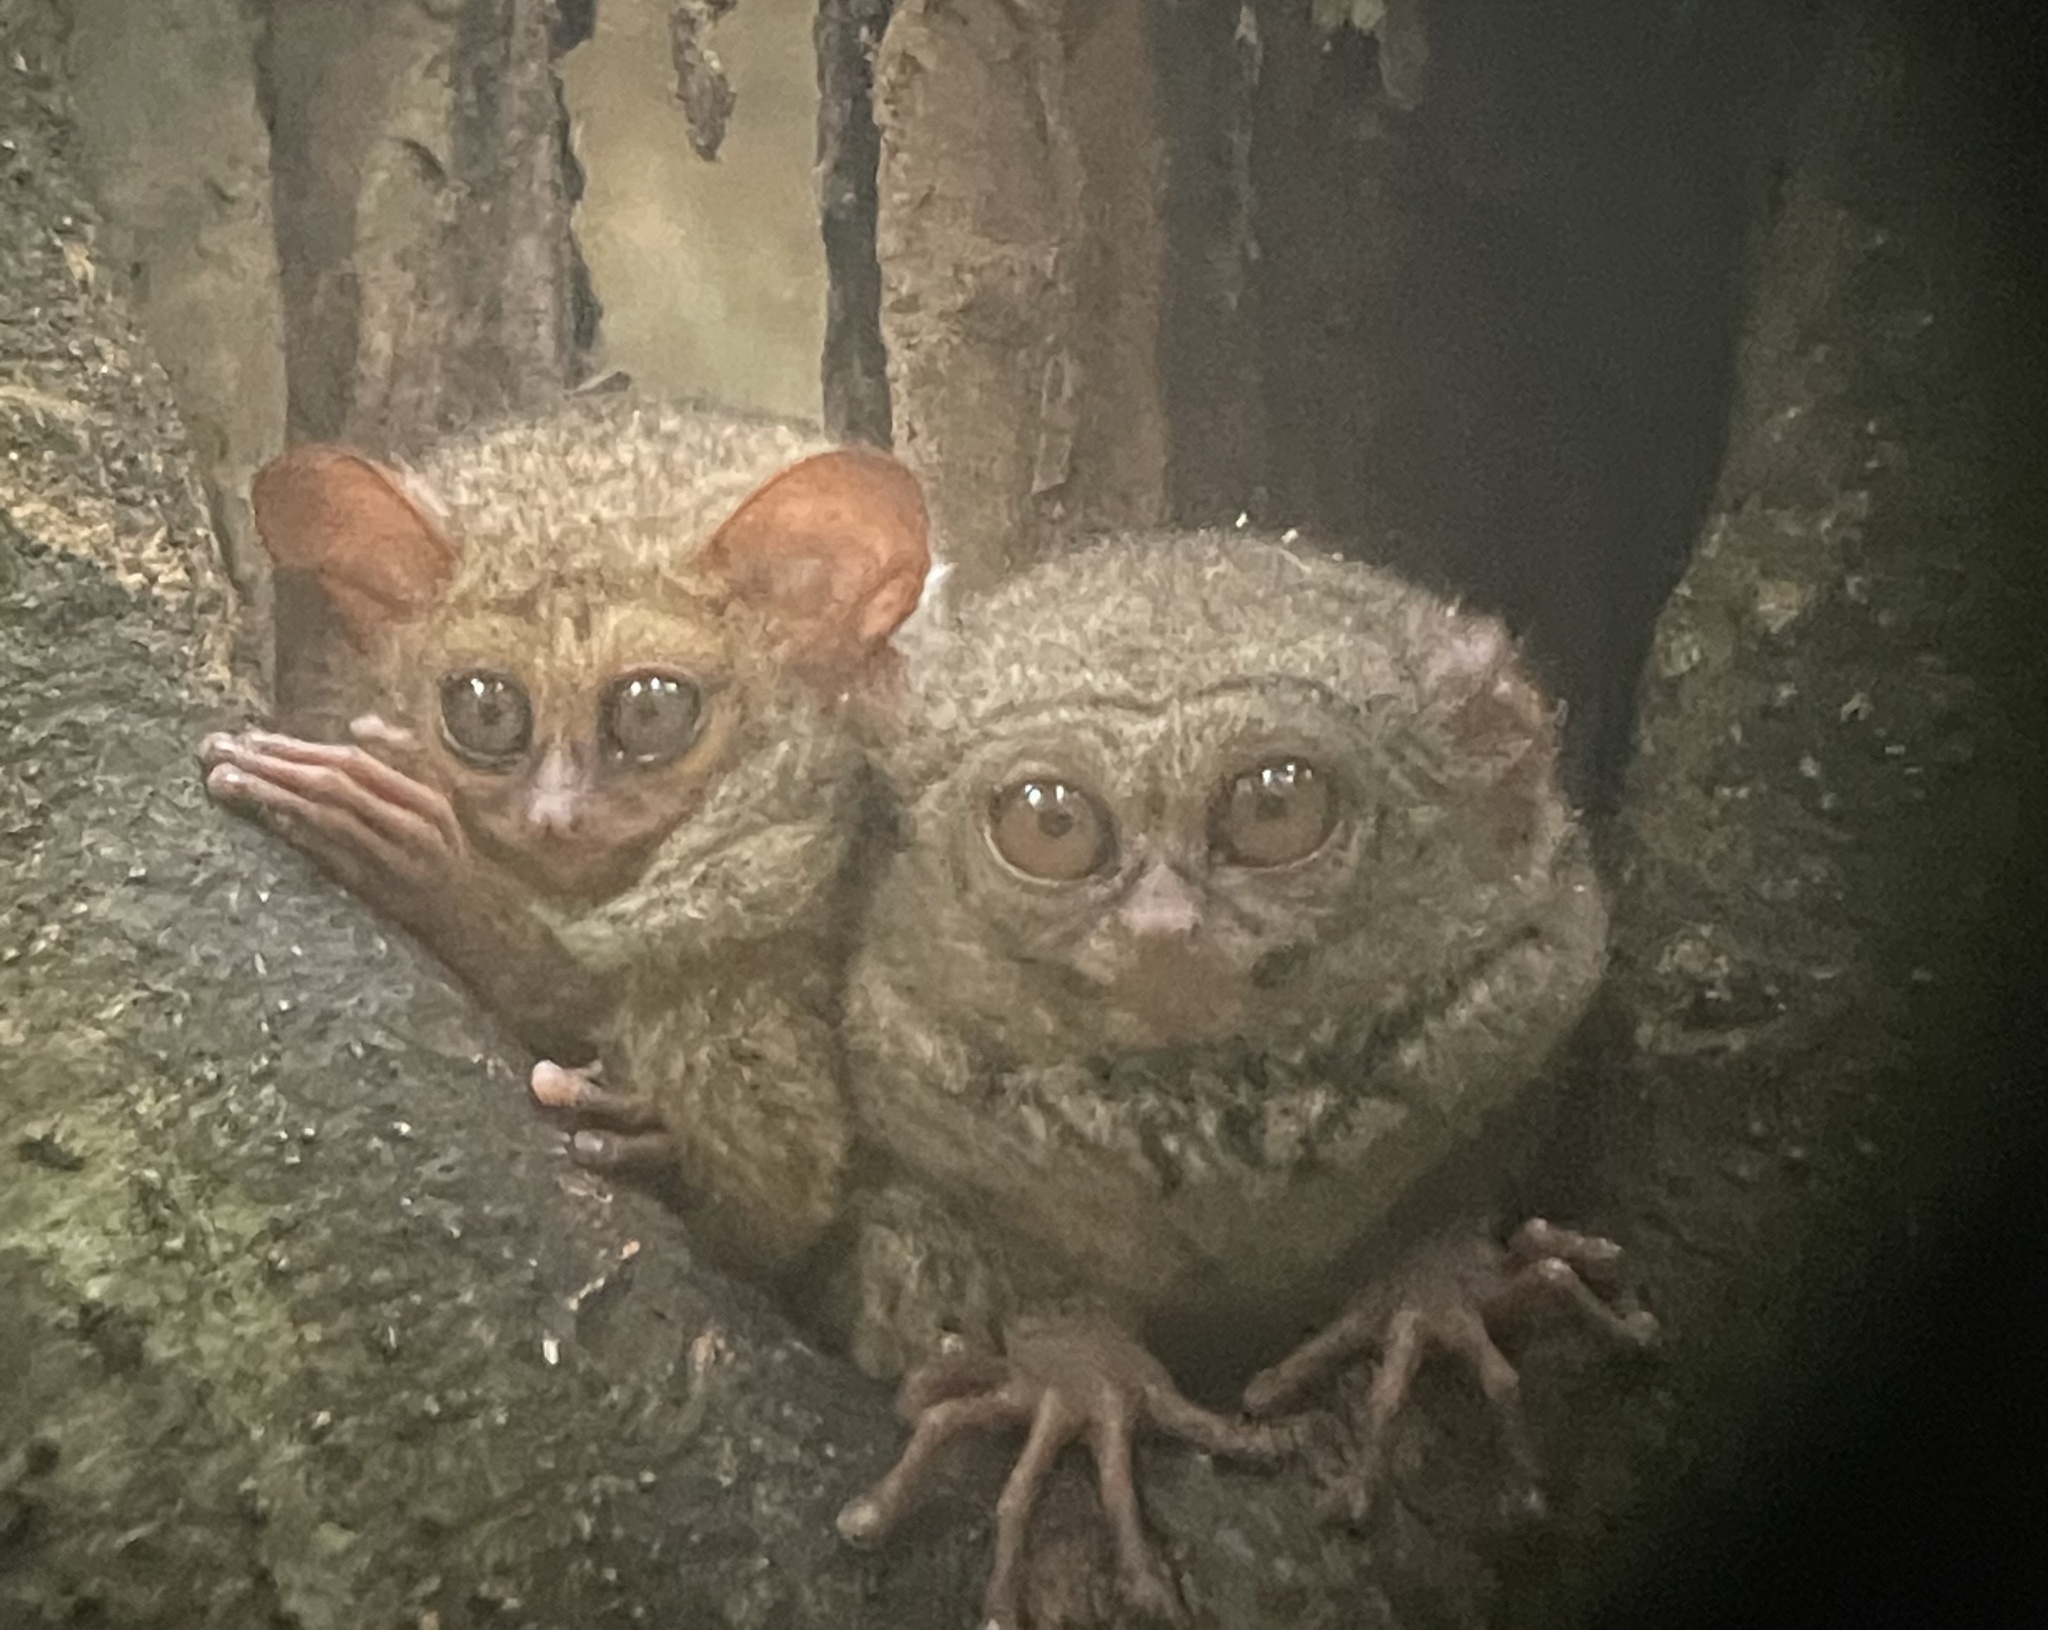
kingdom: Animalia
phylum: Chordata
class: Mammalia
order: Primates
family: Tarsiidae
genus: Tarsius
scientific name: Tarsius spectrumgurskyae
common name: Gursky's spectral tarsier
